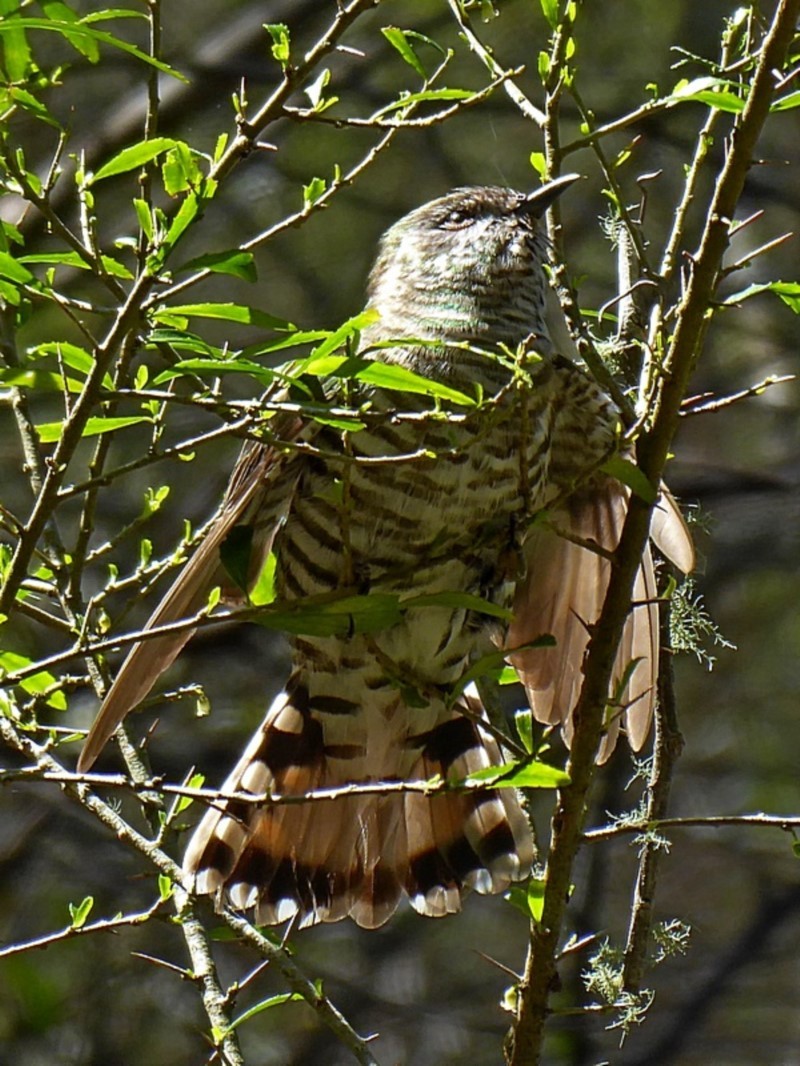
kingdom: Animalia
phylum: Chordata
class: Aves
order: Cuculiformes
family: Cuculidae
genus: Chrysococcyx
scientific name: Chrysococcyx lucidus
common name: Shining bronze cuckoo
